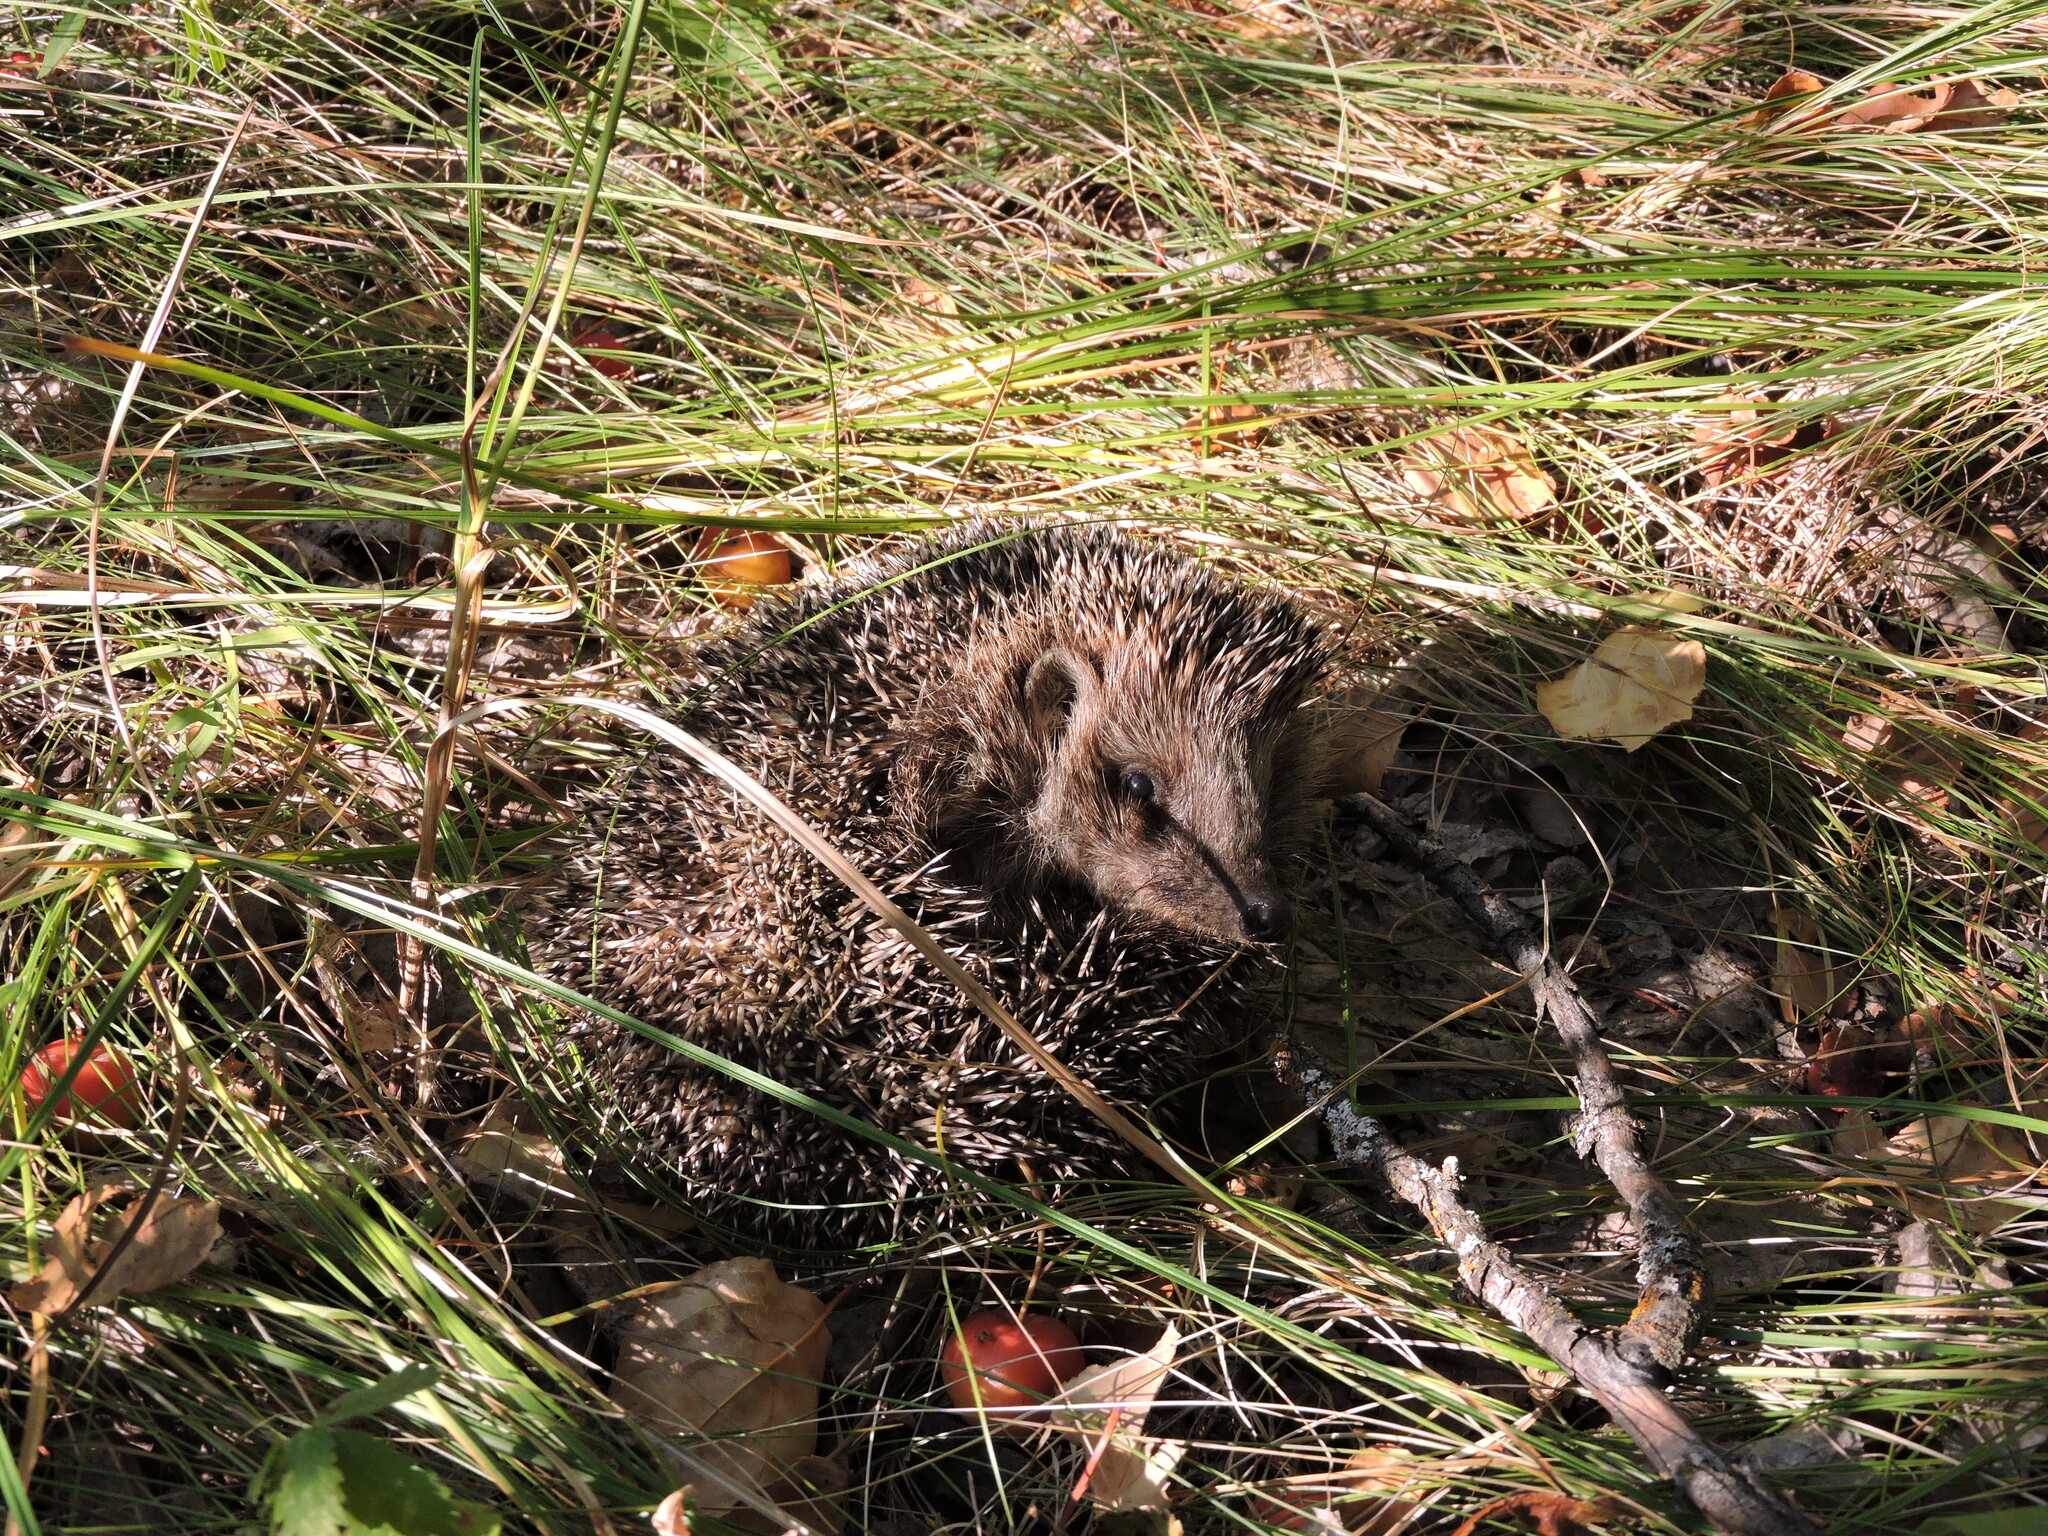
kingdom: Animalia
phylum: Chordata
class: Mammalia
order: Erinaceomorpha
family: Erinaceidae
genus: Erinaceus
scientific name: Erinaceus roumanicus
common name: Northern white-breasted hedgehog
